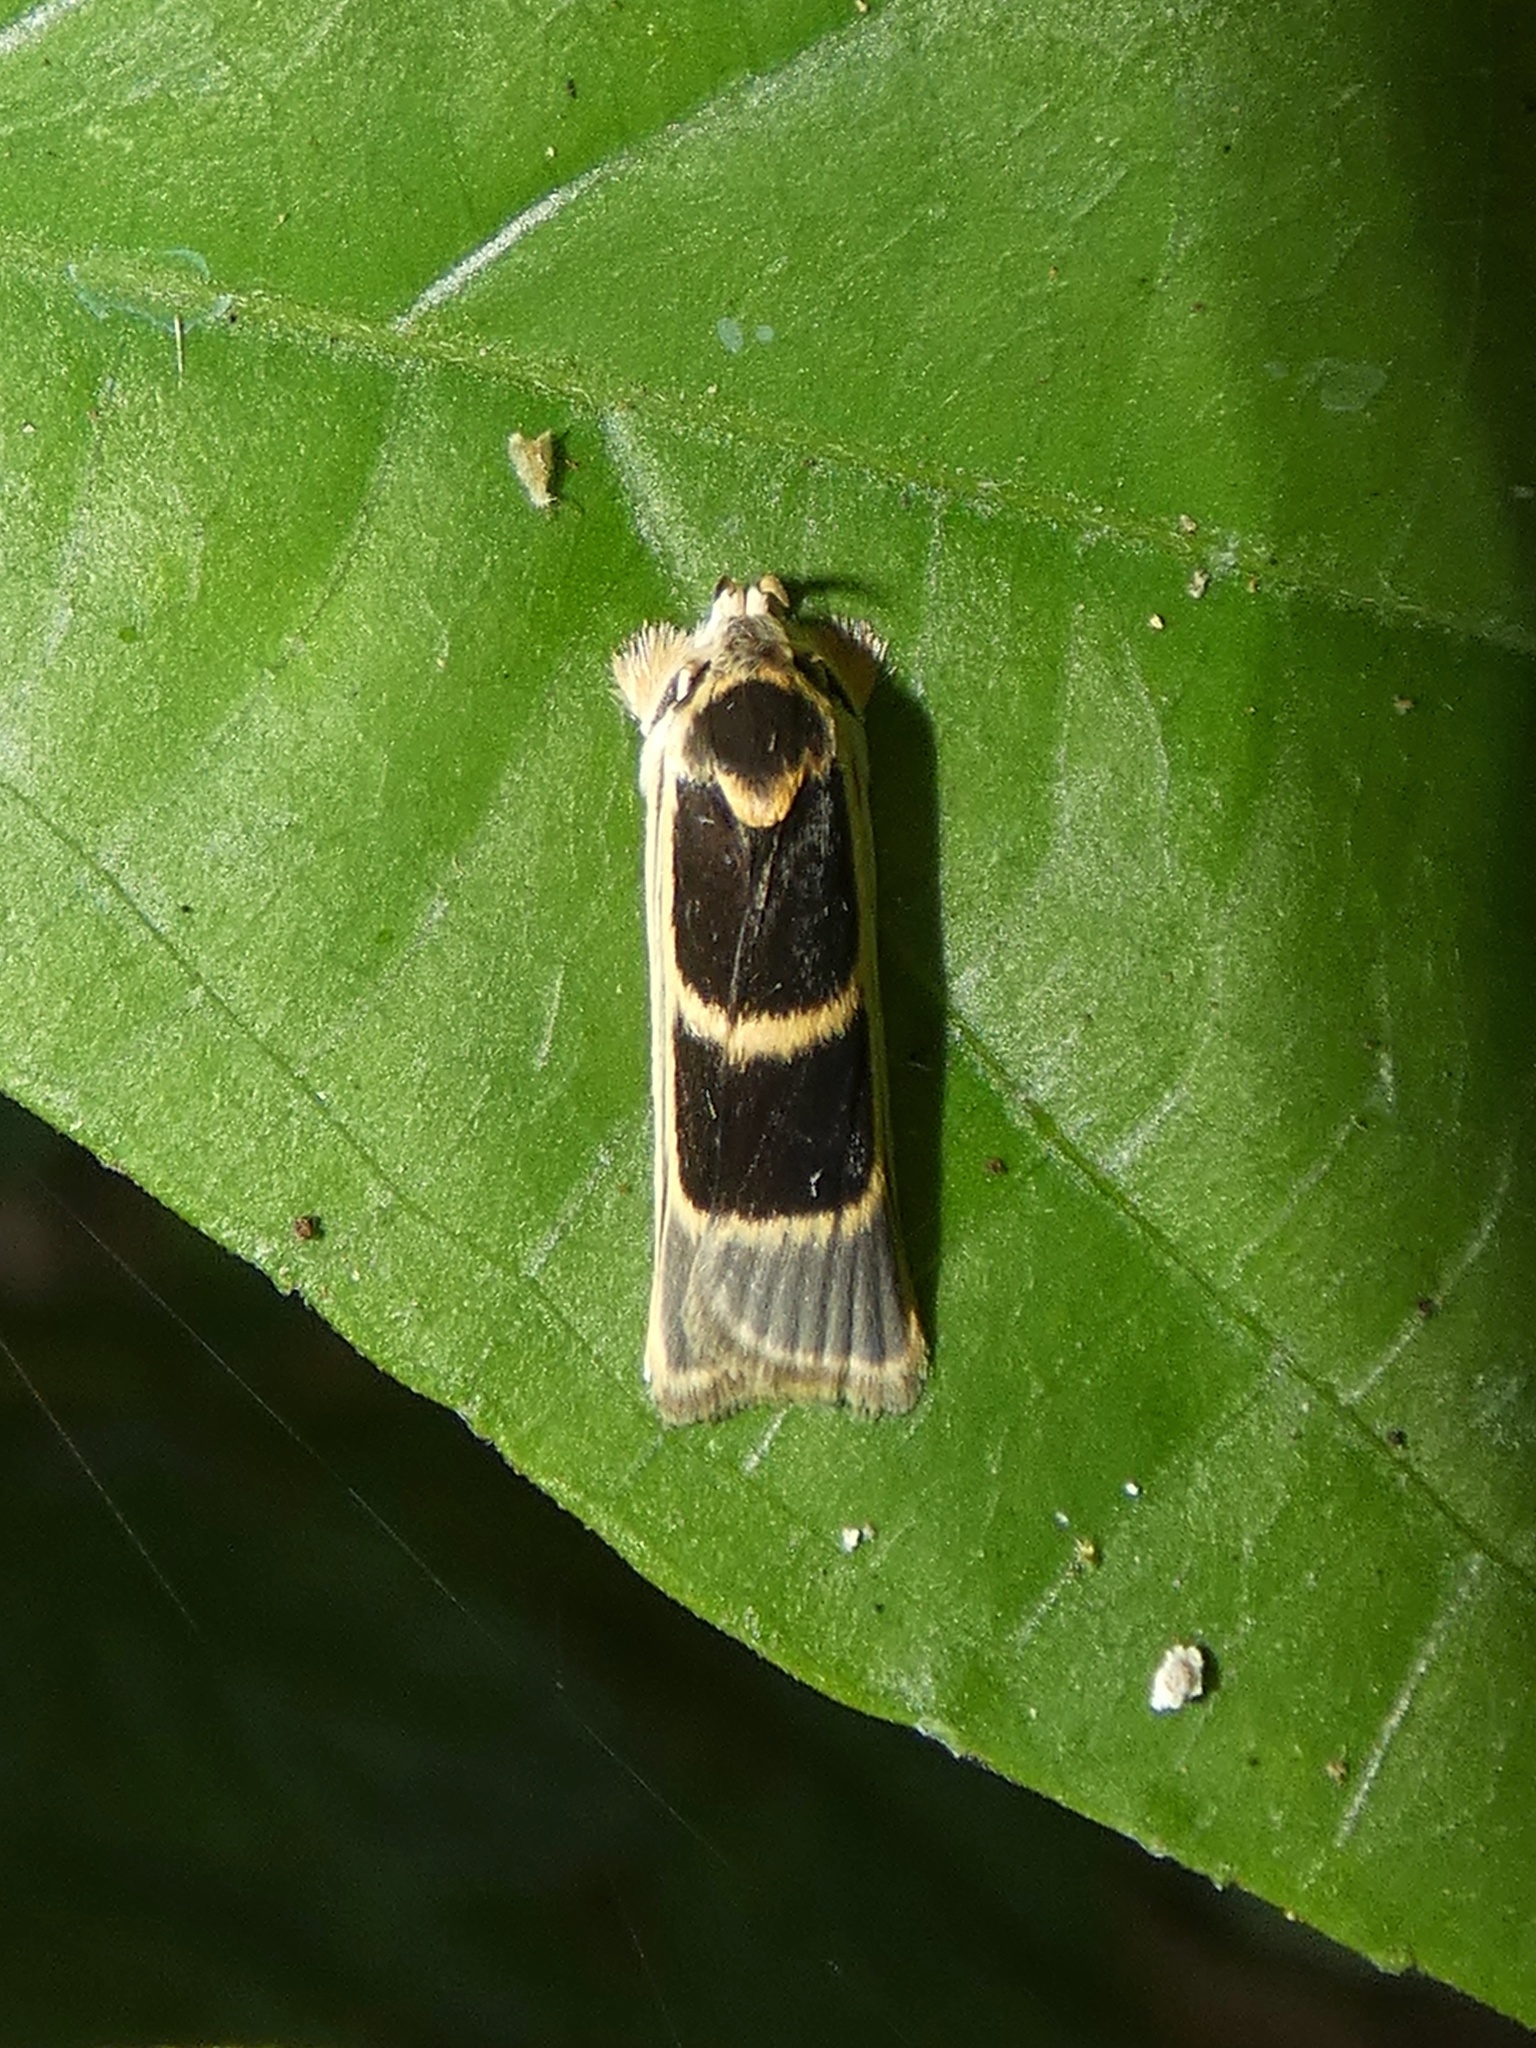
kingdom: Animalia
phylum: Arthropoda
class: Insecta
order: Lepidoptera
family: Depressariidae
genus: Antaeotricha
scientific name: Antaeotricha renselariana
